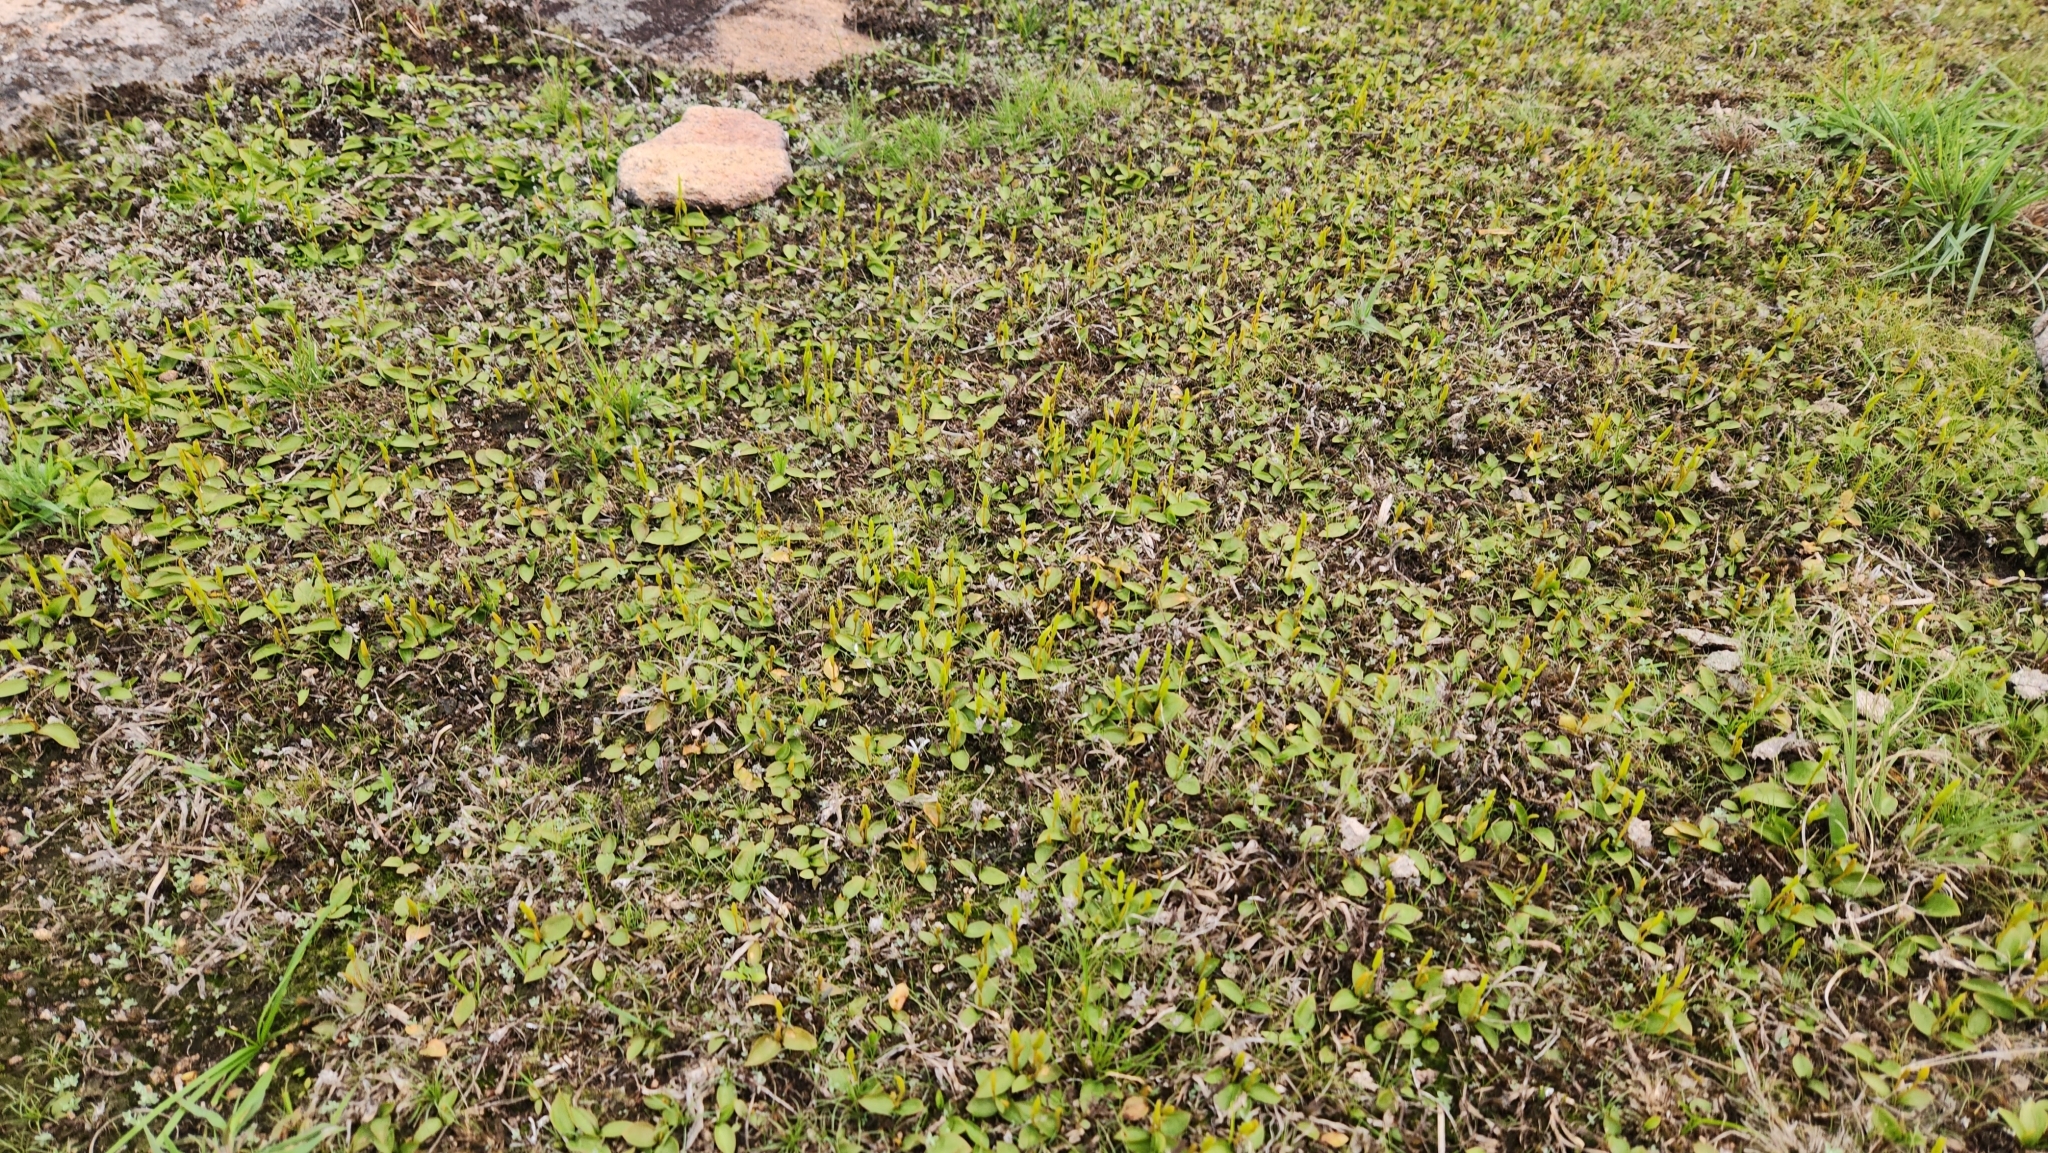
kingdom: Plantae
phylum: Tracheophyta
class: Polypodiopsida
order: Ophioglossales
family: Ophioglossaceae
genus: Ophioglossum
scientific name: Ophioglossum nudicaule
